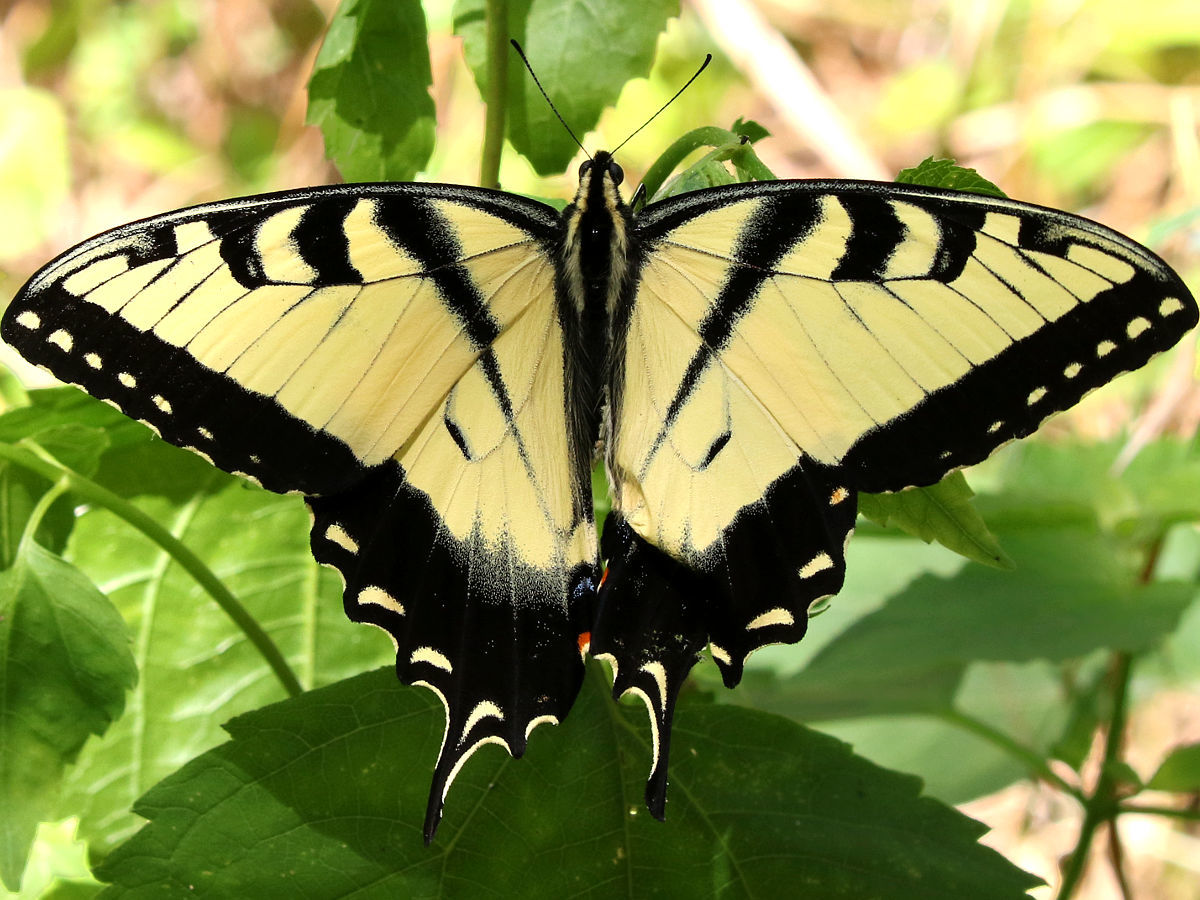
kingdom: Animalia
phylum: Arthropoda
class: Insecta
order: Lepidoptera
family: Papilionidae
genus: Papilio
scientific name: Papilio glaucus
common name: Tiger swallowtail
